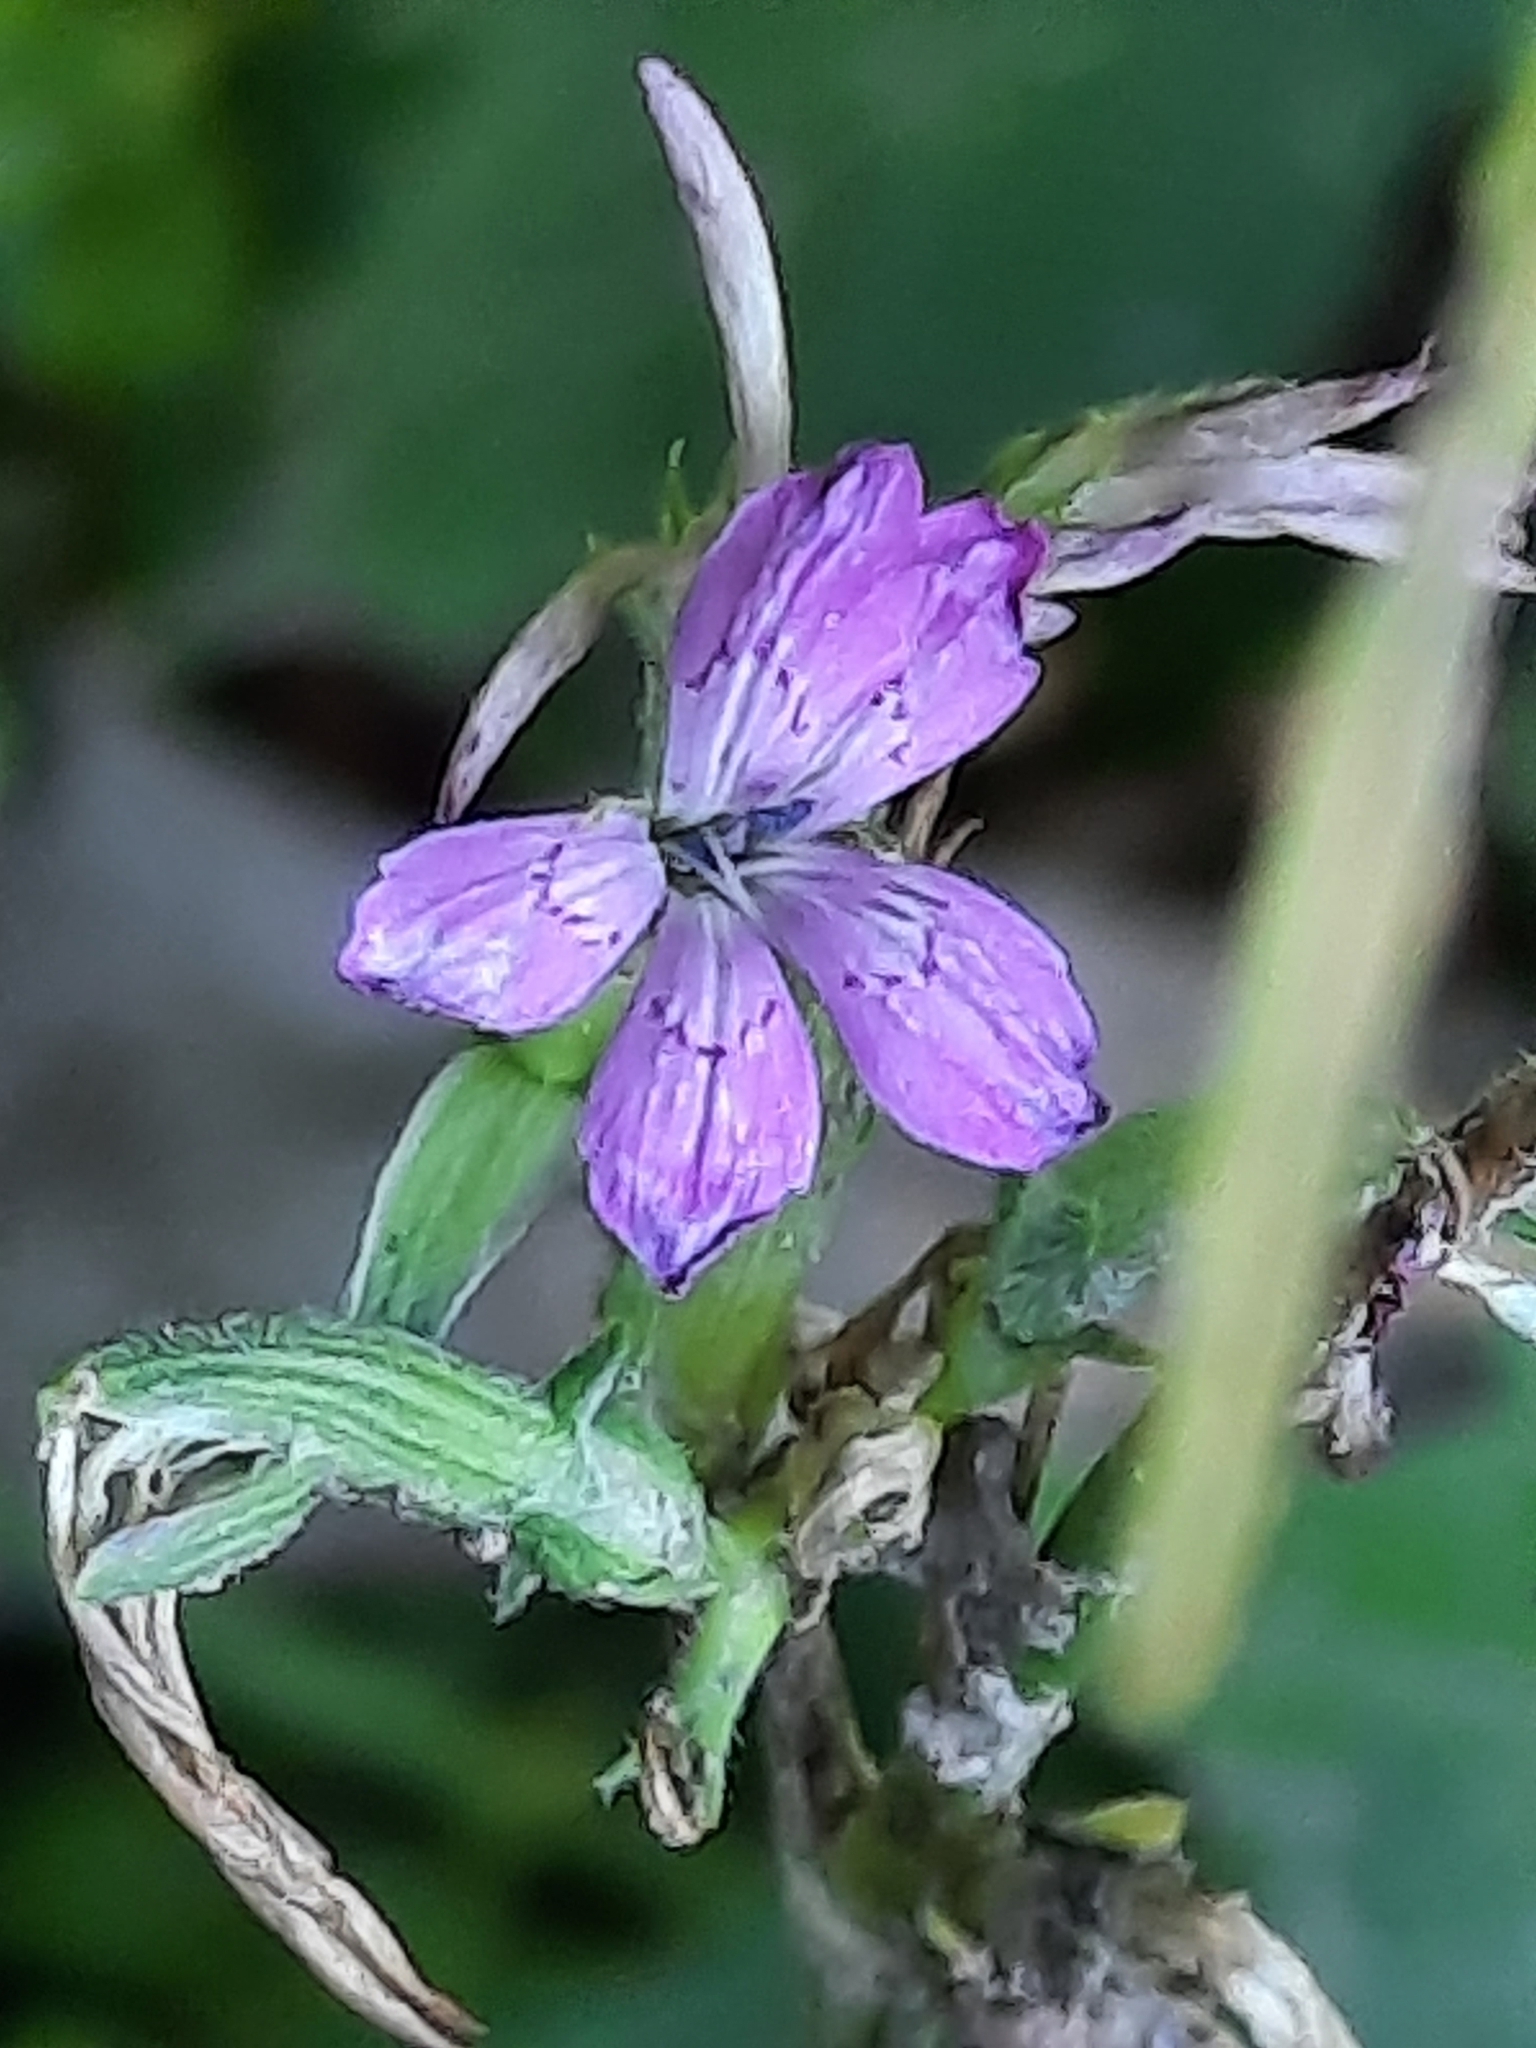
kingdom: Plantae
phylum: Tracheophyta
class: Magnoliopsida
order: Caryophyllales
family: Caryophyllaceae
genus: Dianthus
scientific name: Dianthus armeria
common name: Deptford pink
